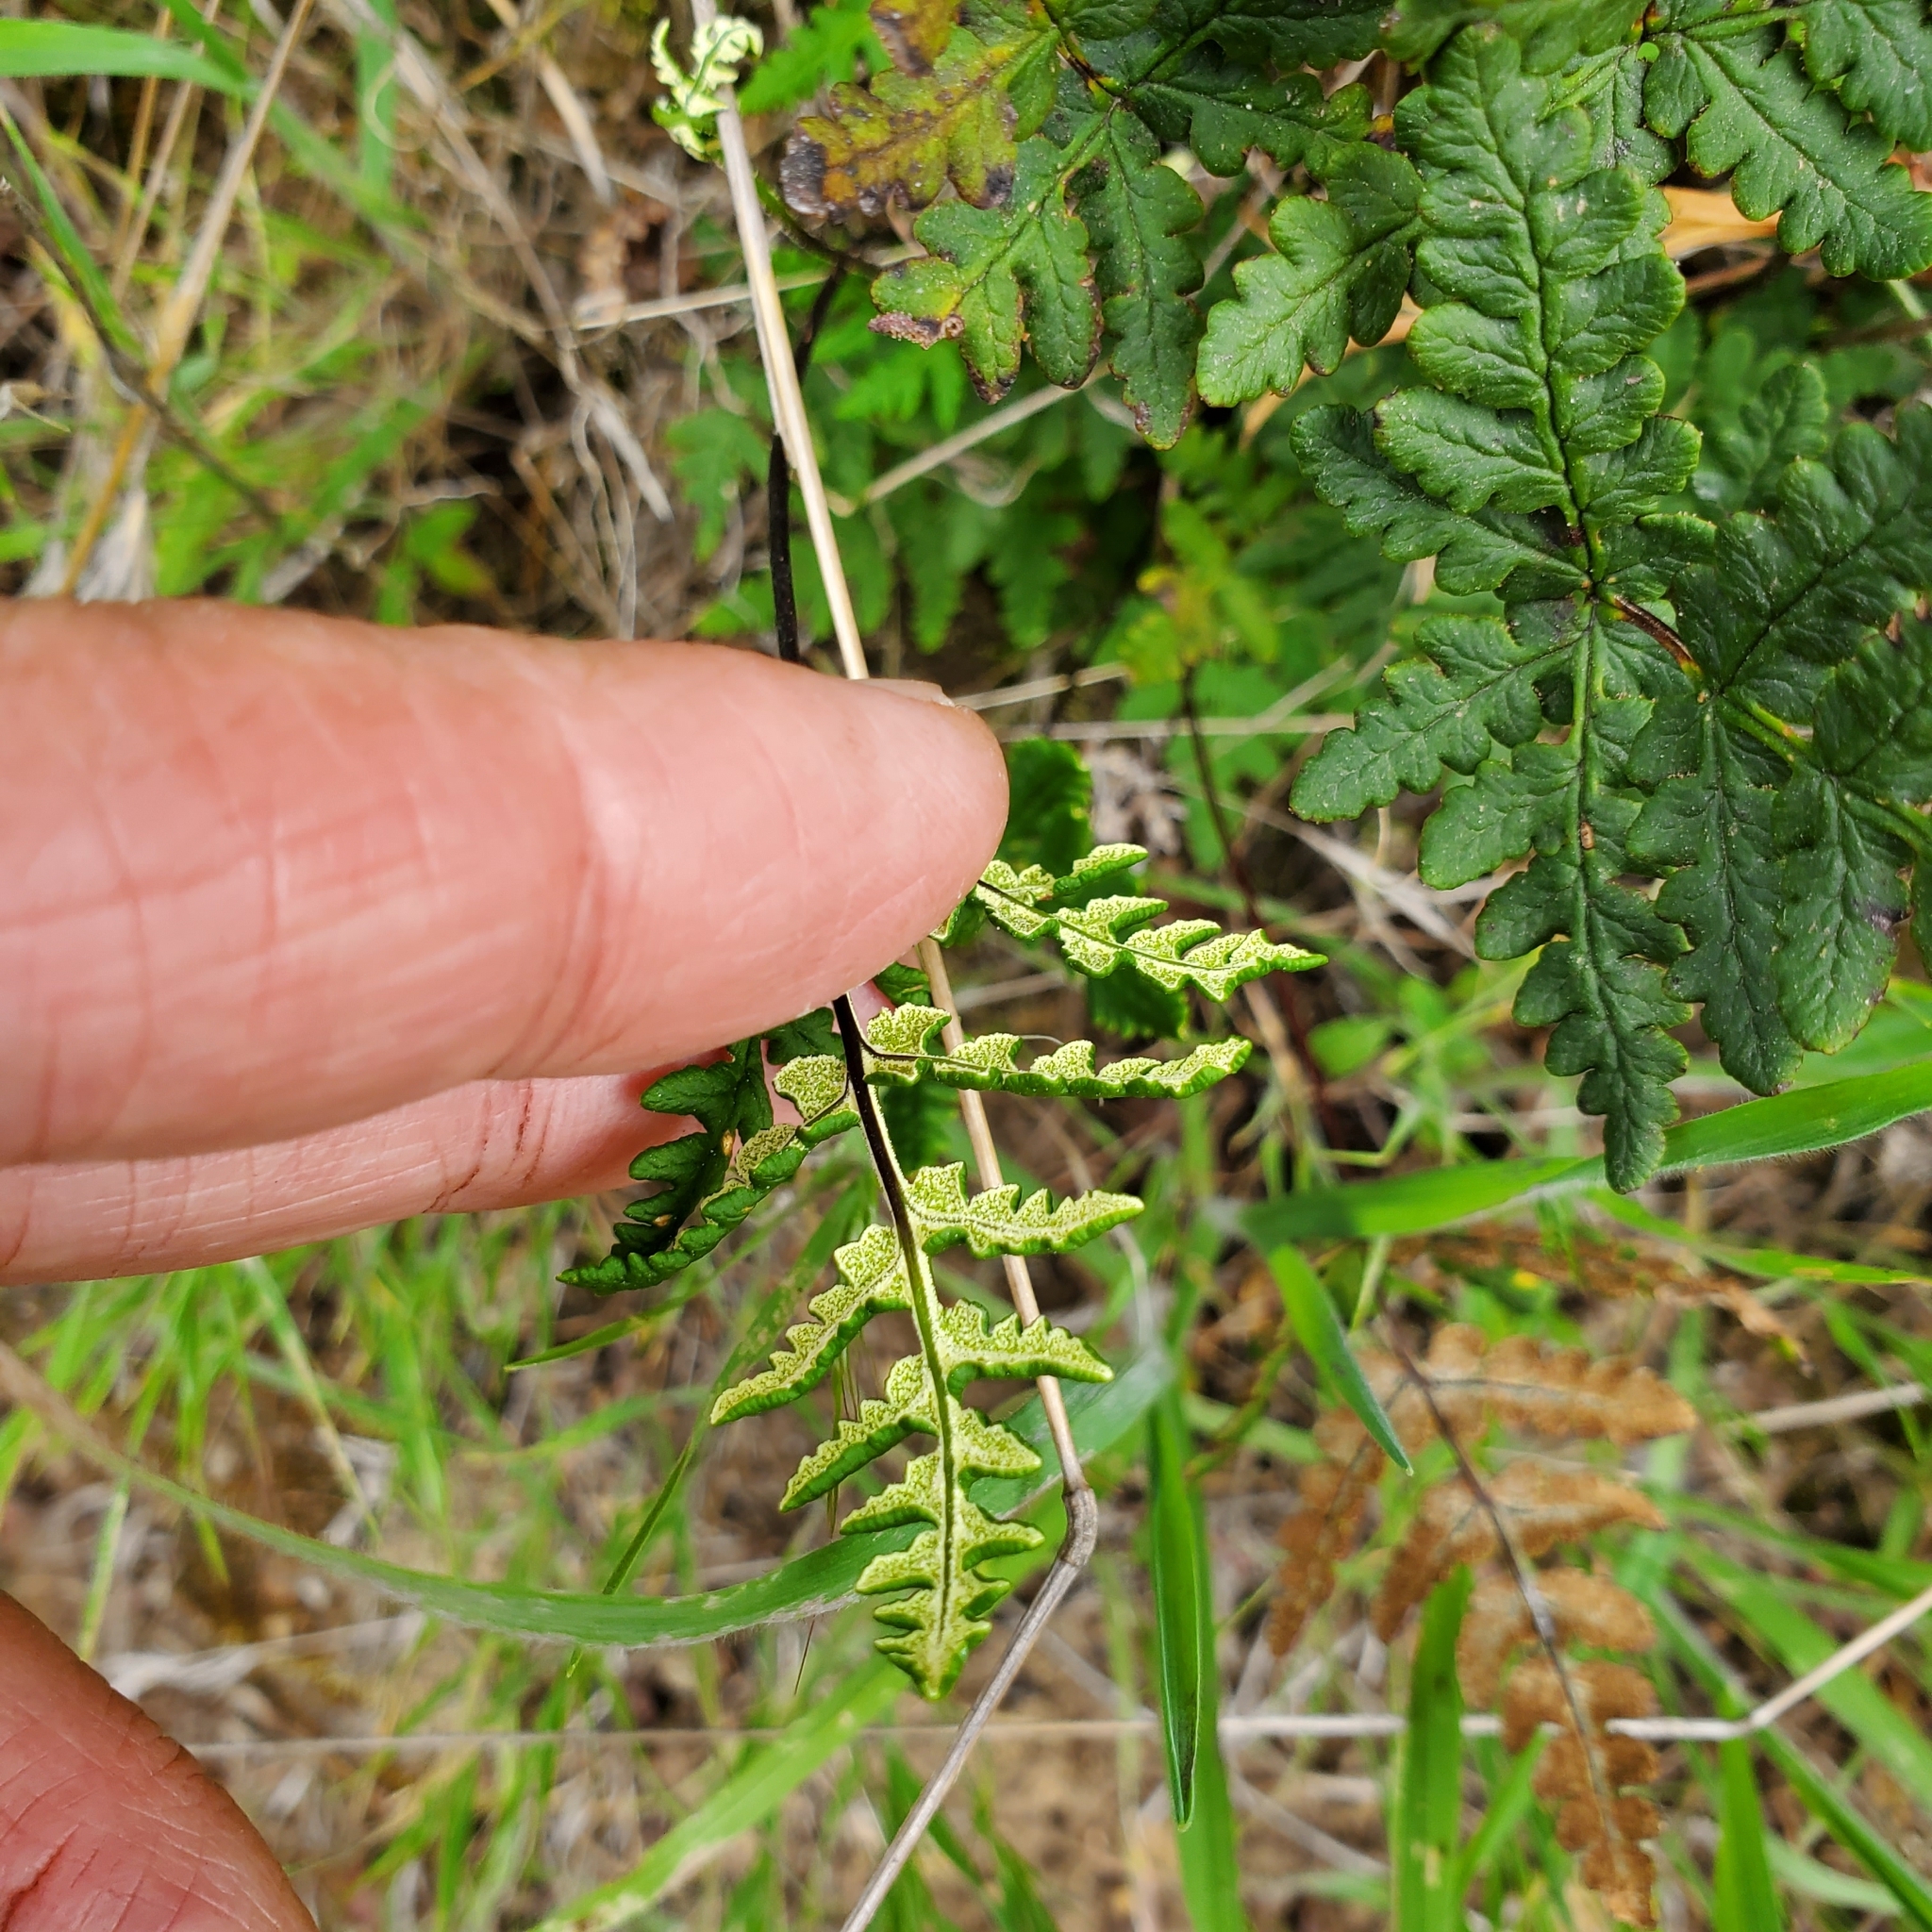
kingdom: Plantae
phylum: Tracheophyta
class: Polypodiopsida
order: Polypodiales
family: Pteridaceae
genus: Pentagramma
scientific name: Pentagramma triangularis
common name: Gold fern
